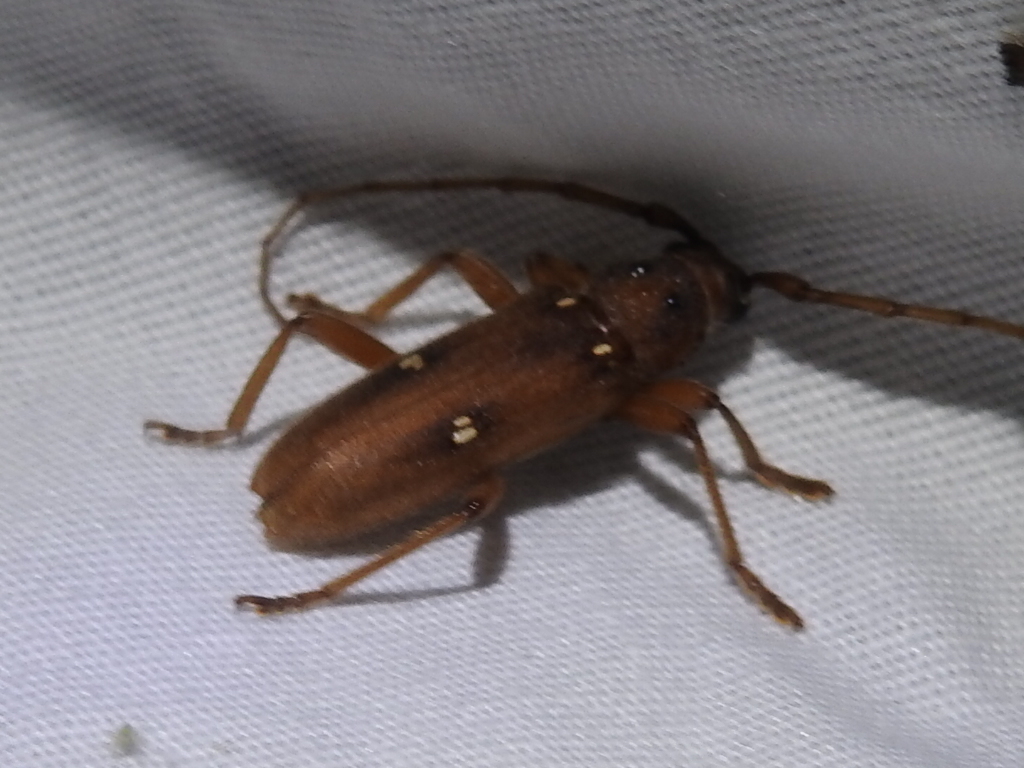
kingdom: Animalia
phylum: Arthropoda
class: Insecta
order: Coleoptera
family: Cerambycidae
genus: Eburia
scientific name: Eburia haldemani
